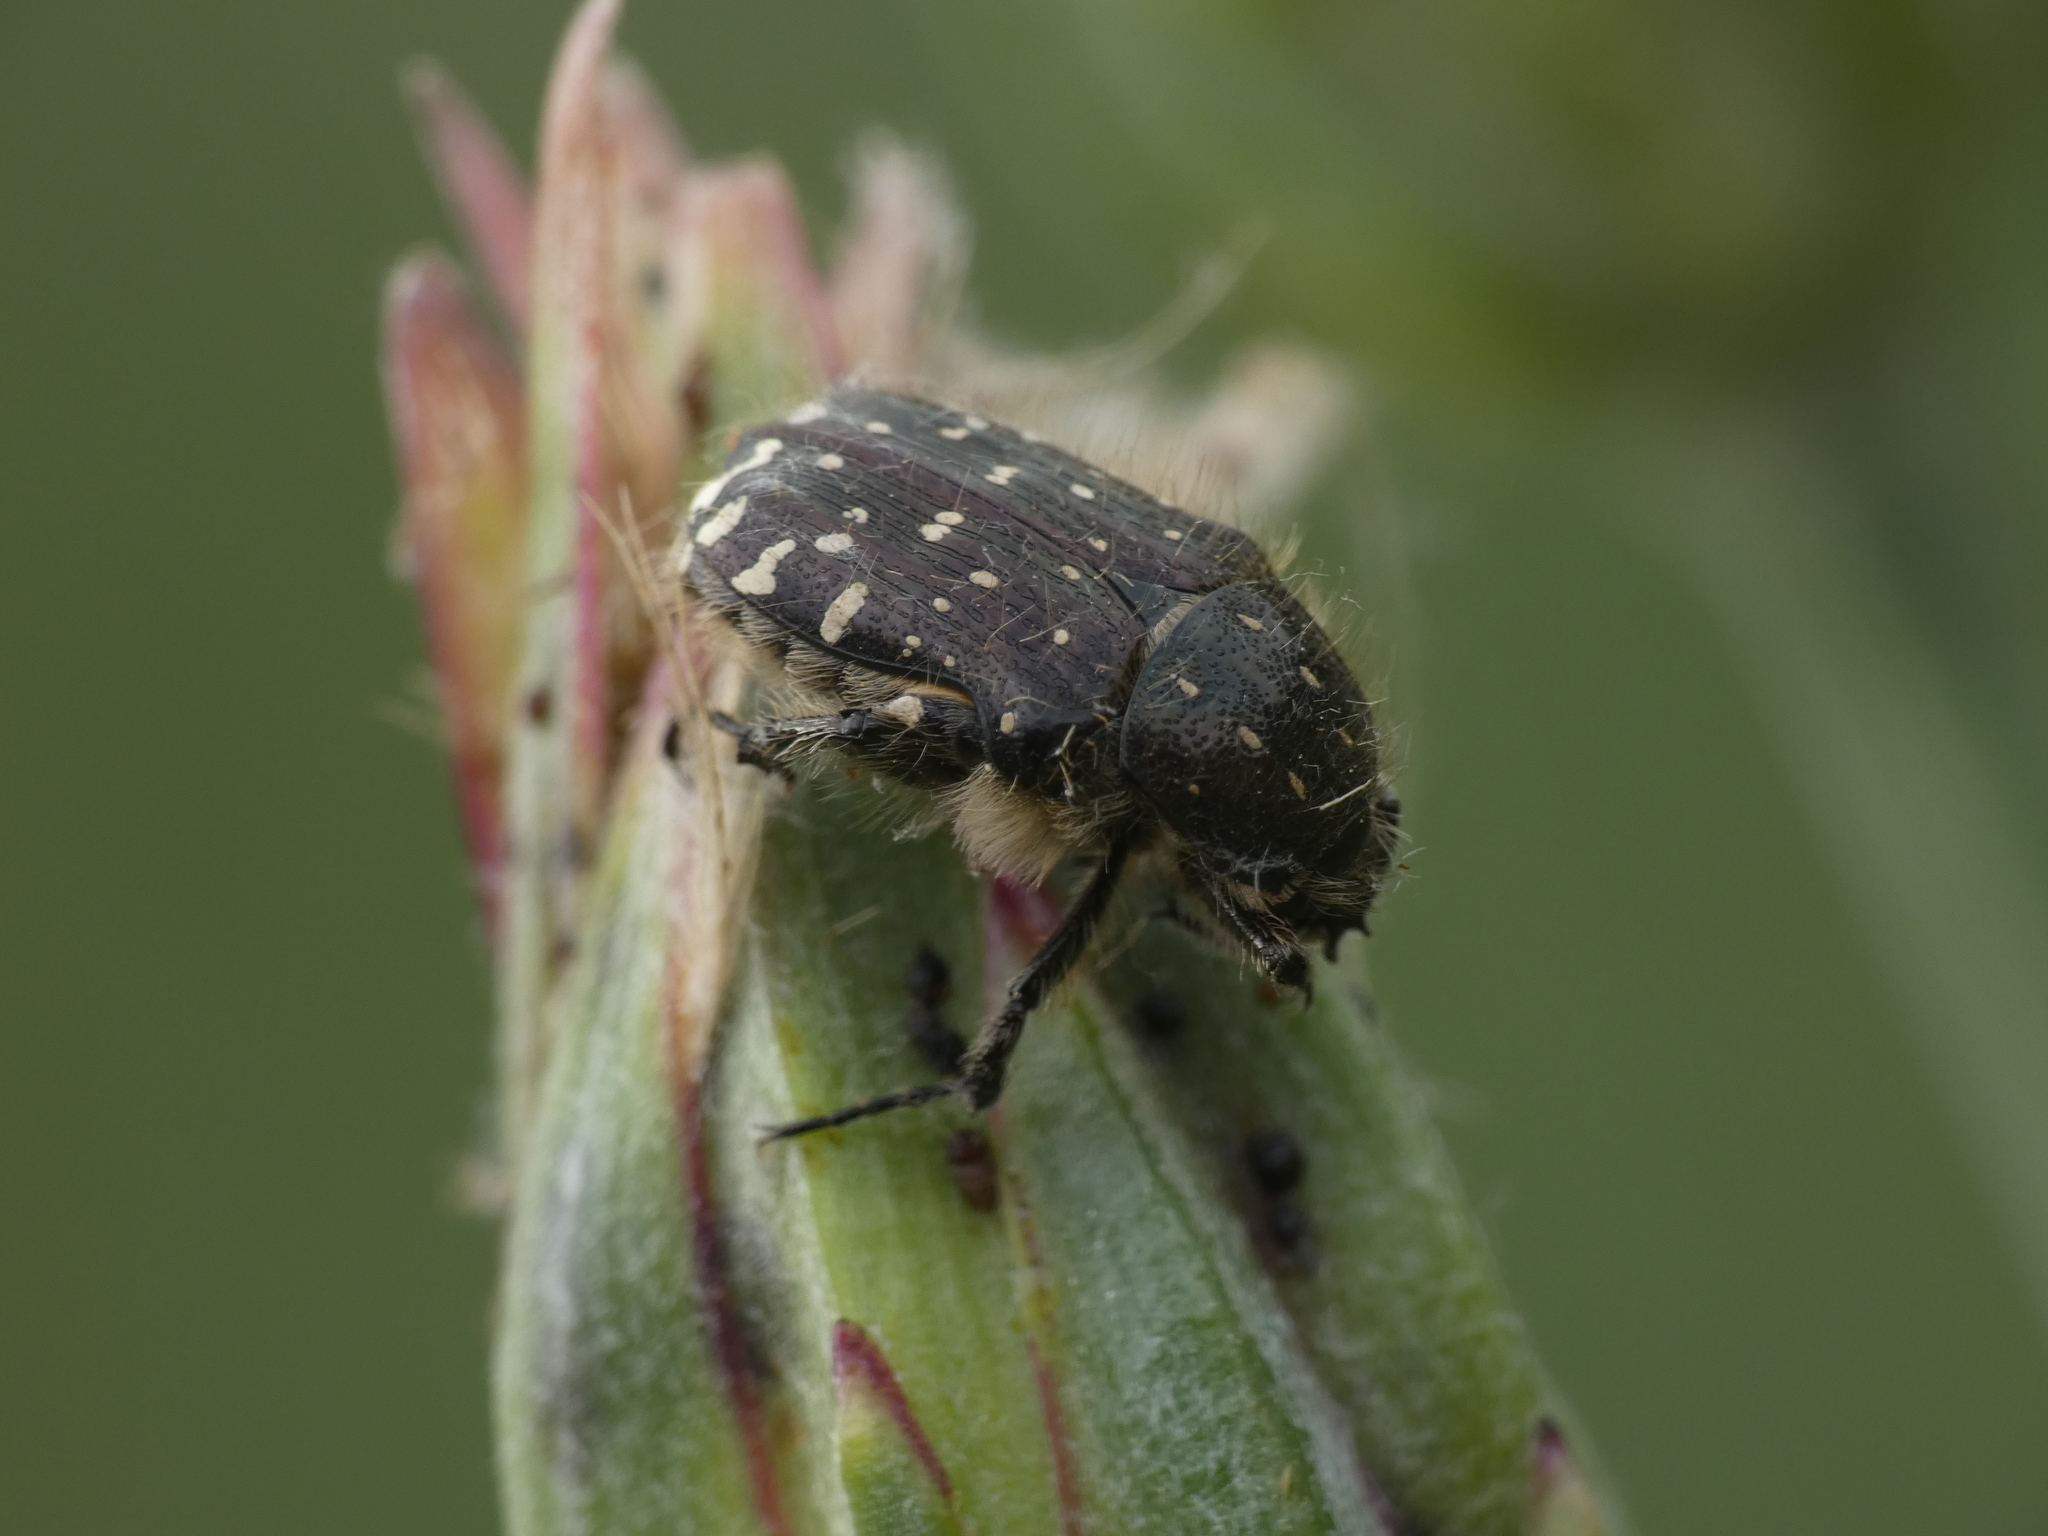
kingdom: Animalia
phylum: Arthropoda
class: Insecta
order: Coleoptera
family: Scarabaeidae
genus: Oxythyrea
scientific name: Oxythyrea funesta
